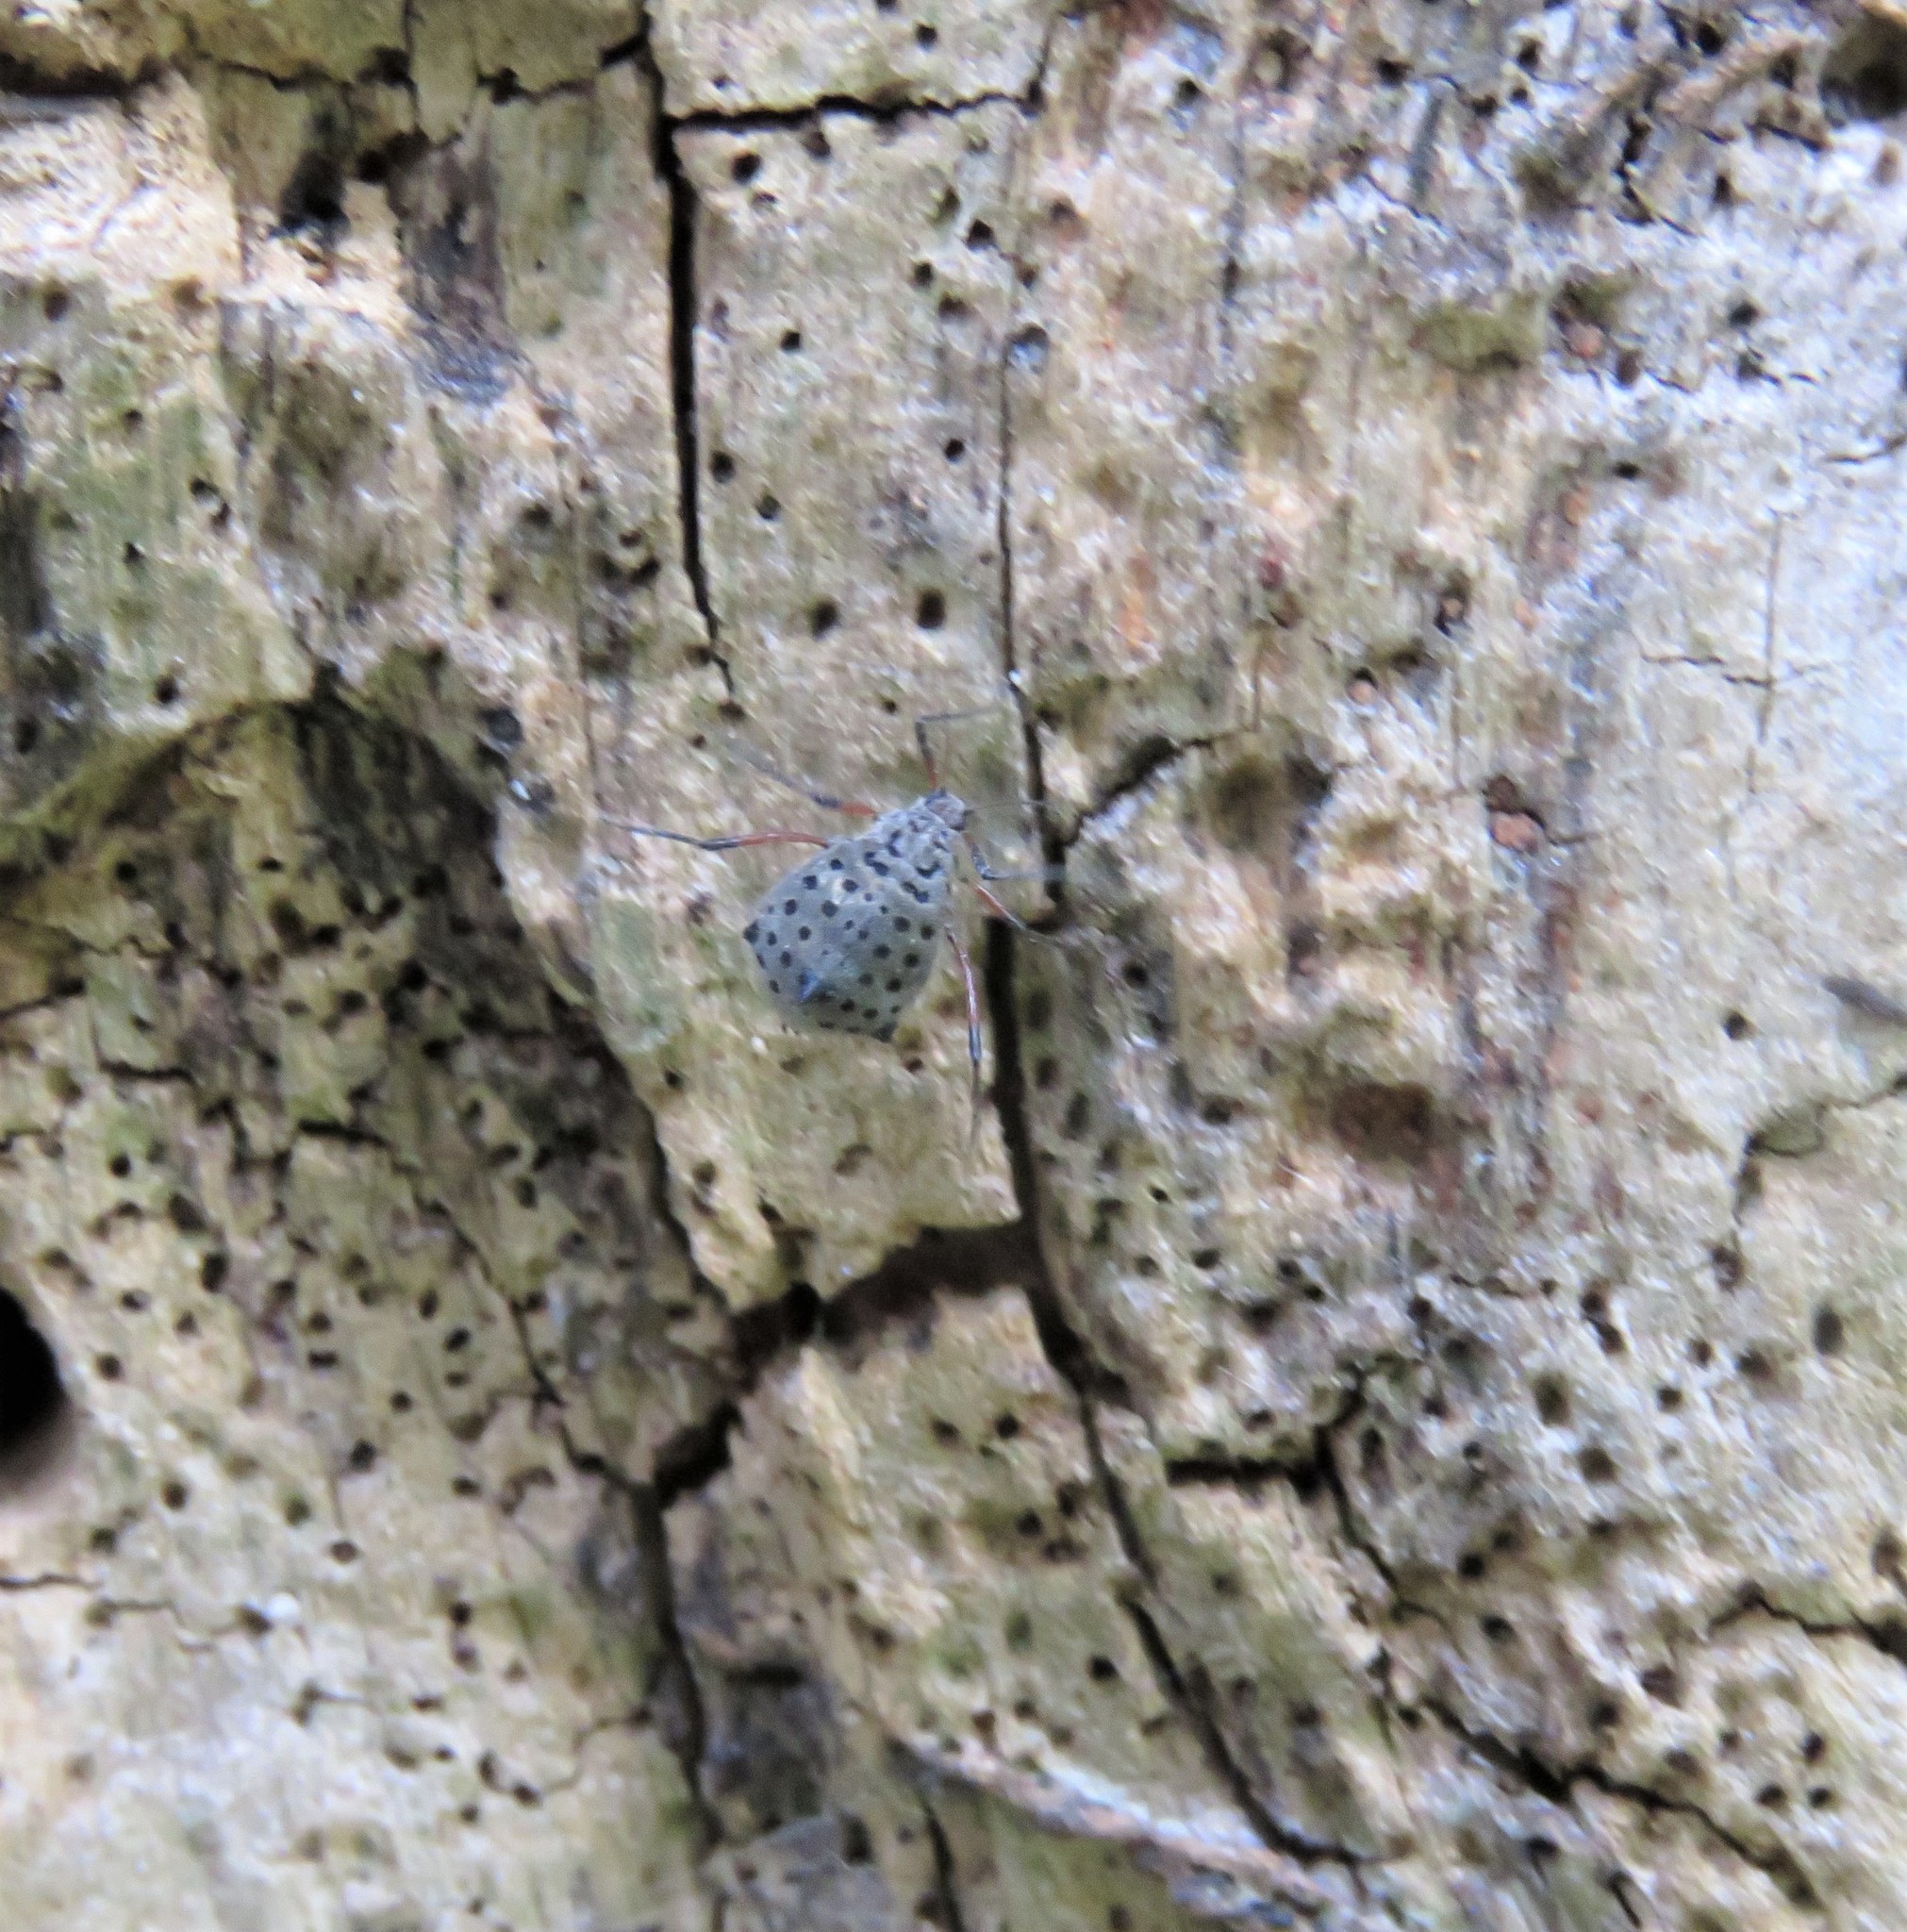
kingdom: Animalia
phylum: Arthropoda
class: Insecta
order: Hemiptera
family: Aphididae
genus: Tuberolachnus
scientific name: Tuberolachnus salignus
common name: Giant willow aphid
